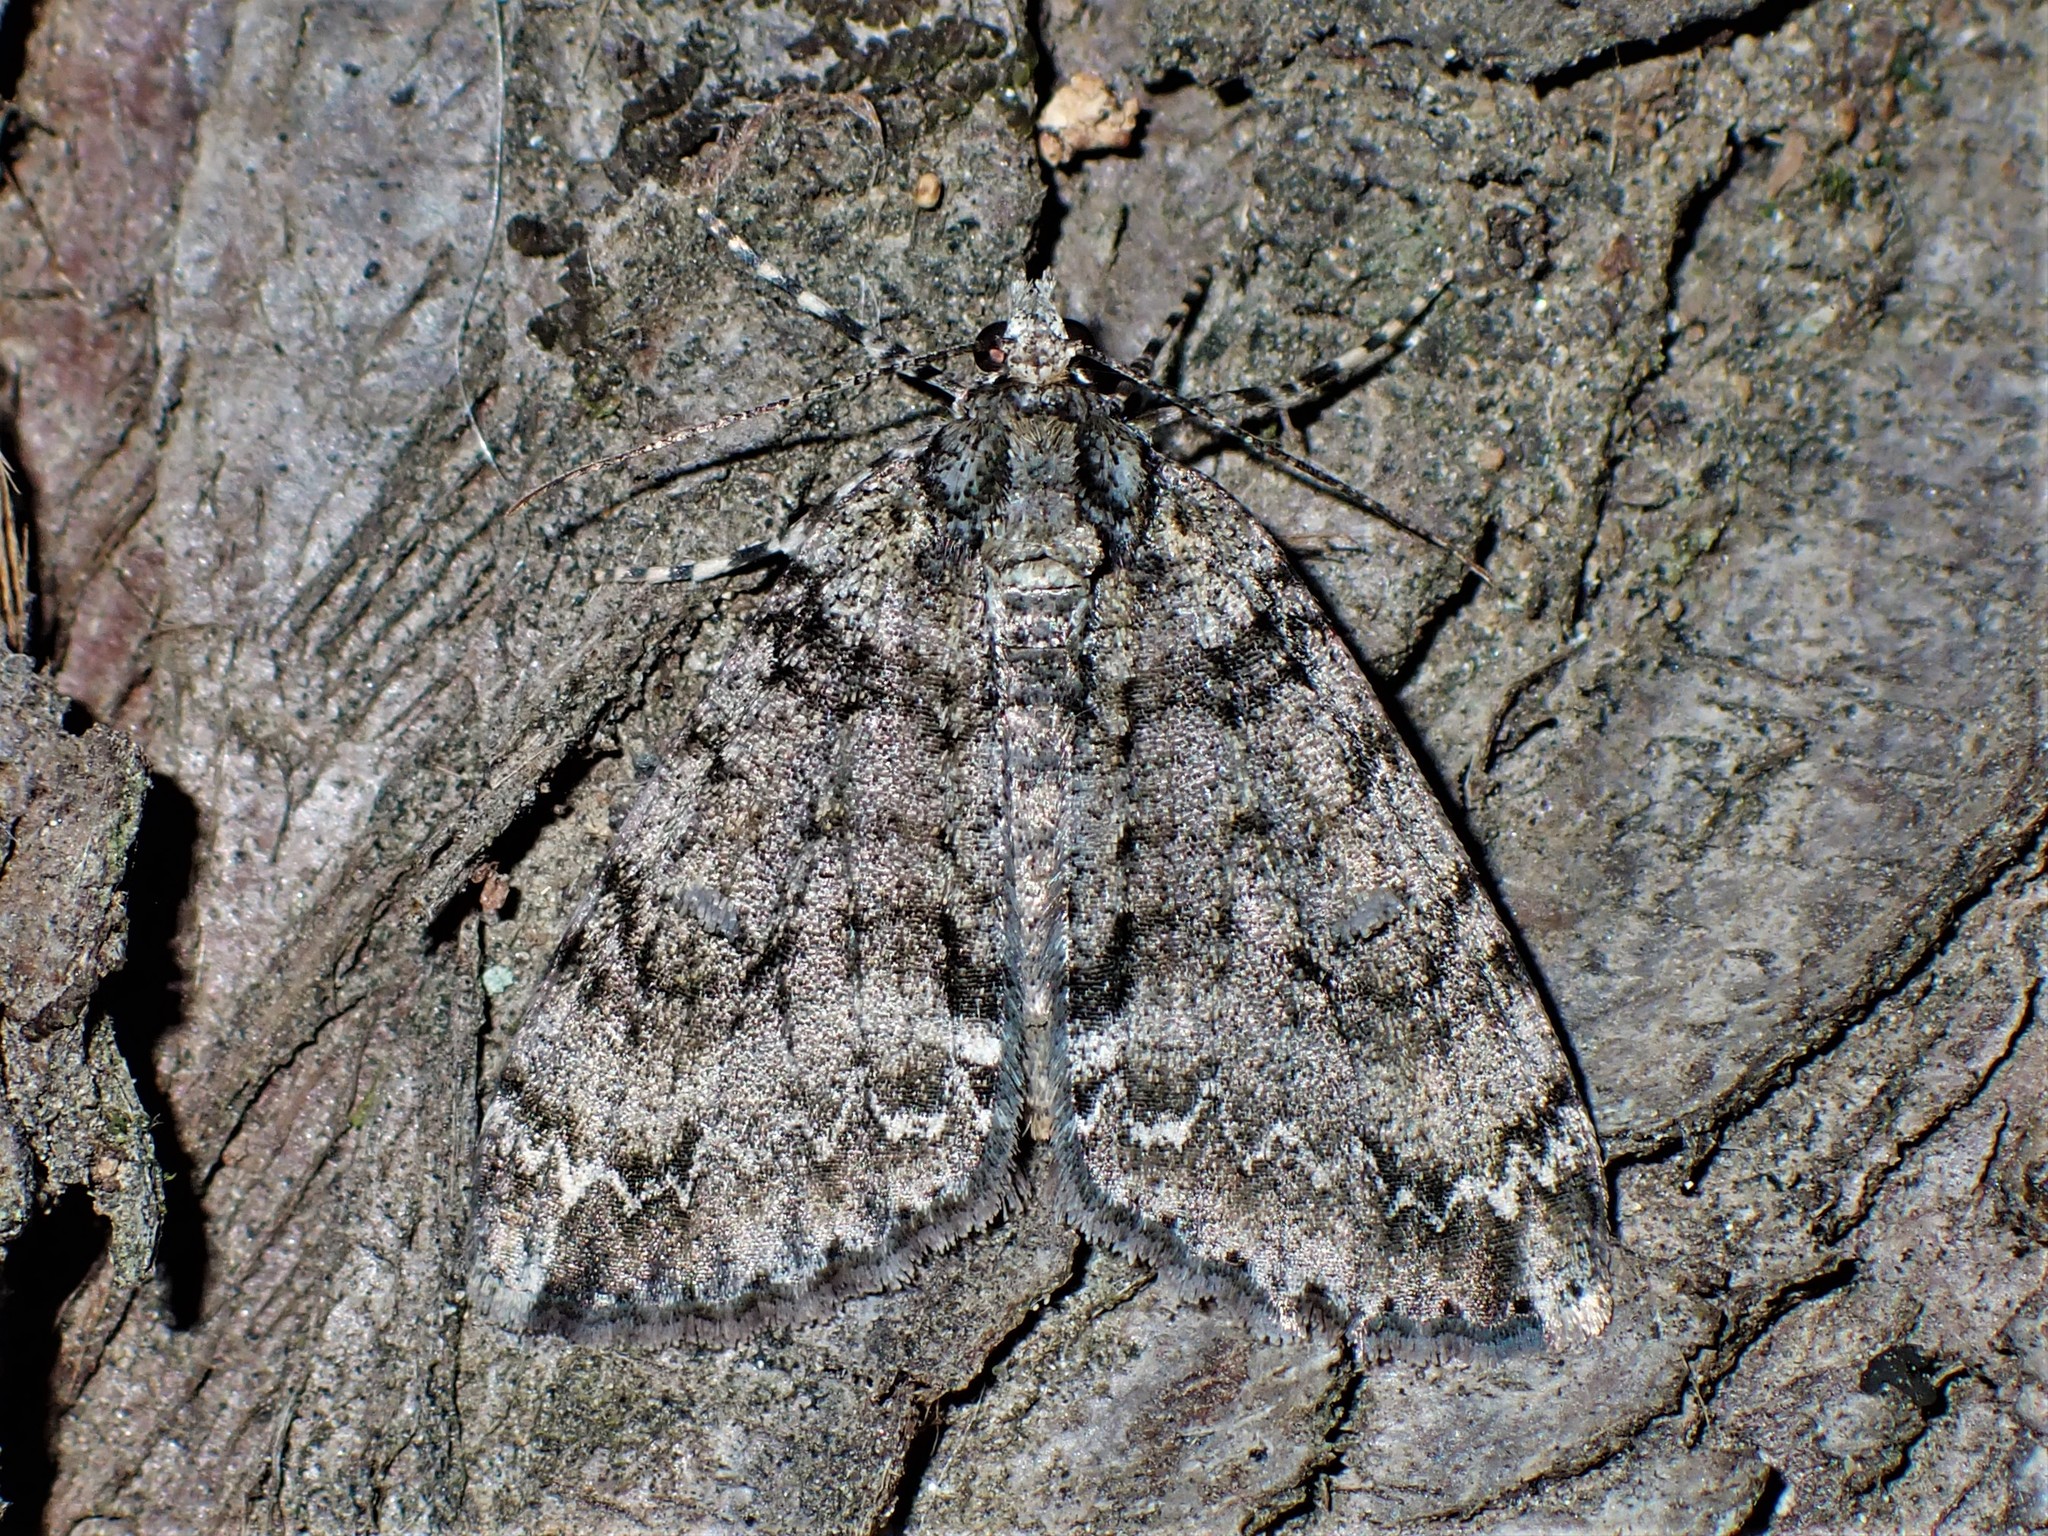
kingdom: Animalia
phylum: Arthropoda
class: Insecta
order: Lepidoptera
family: Geometridae
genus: Pseudocoremia
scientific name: Pseudocoremia suavis
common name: Common forest looper
